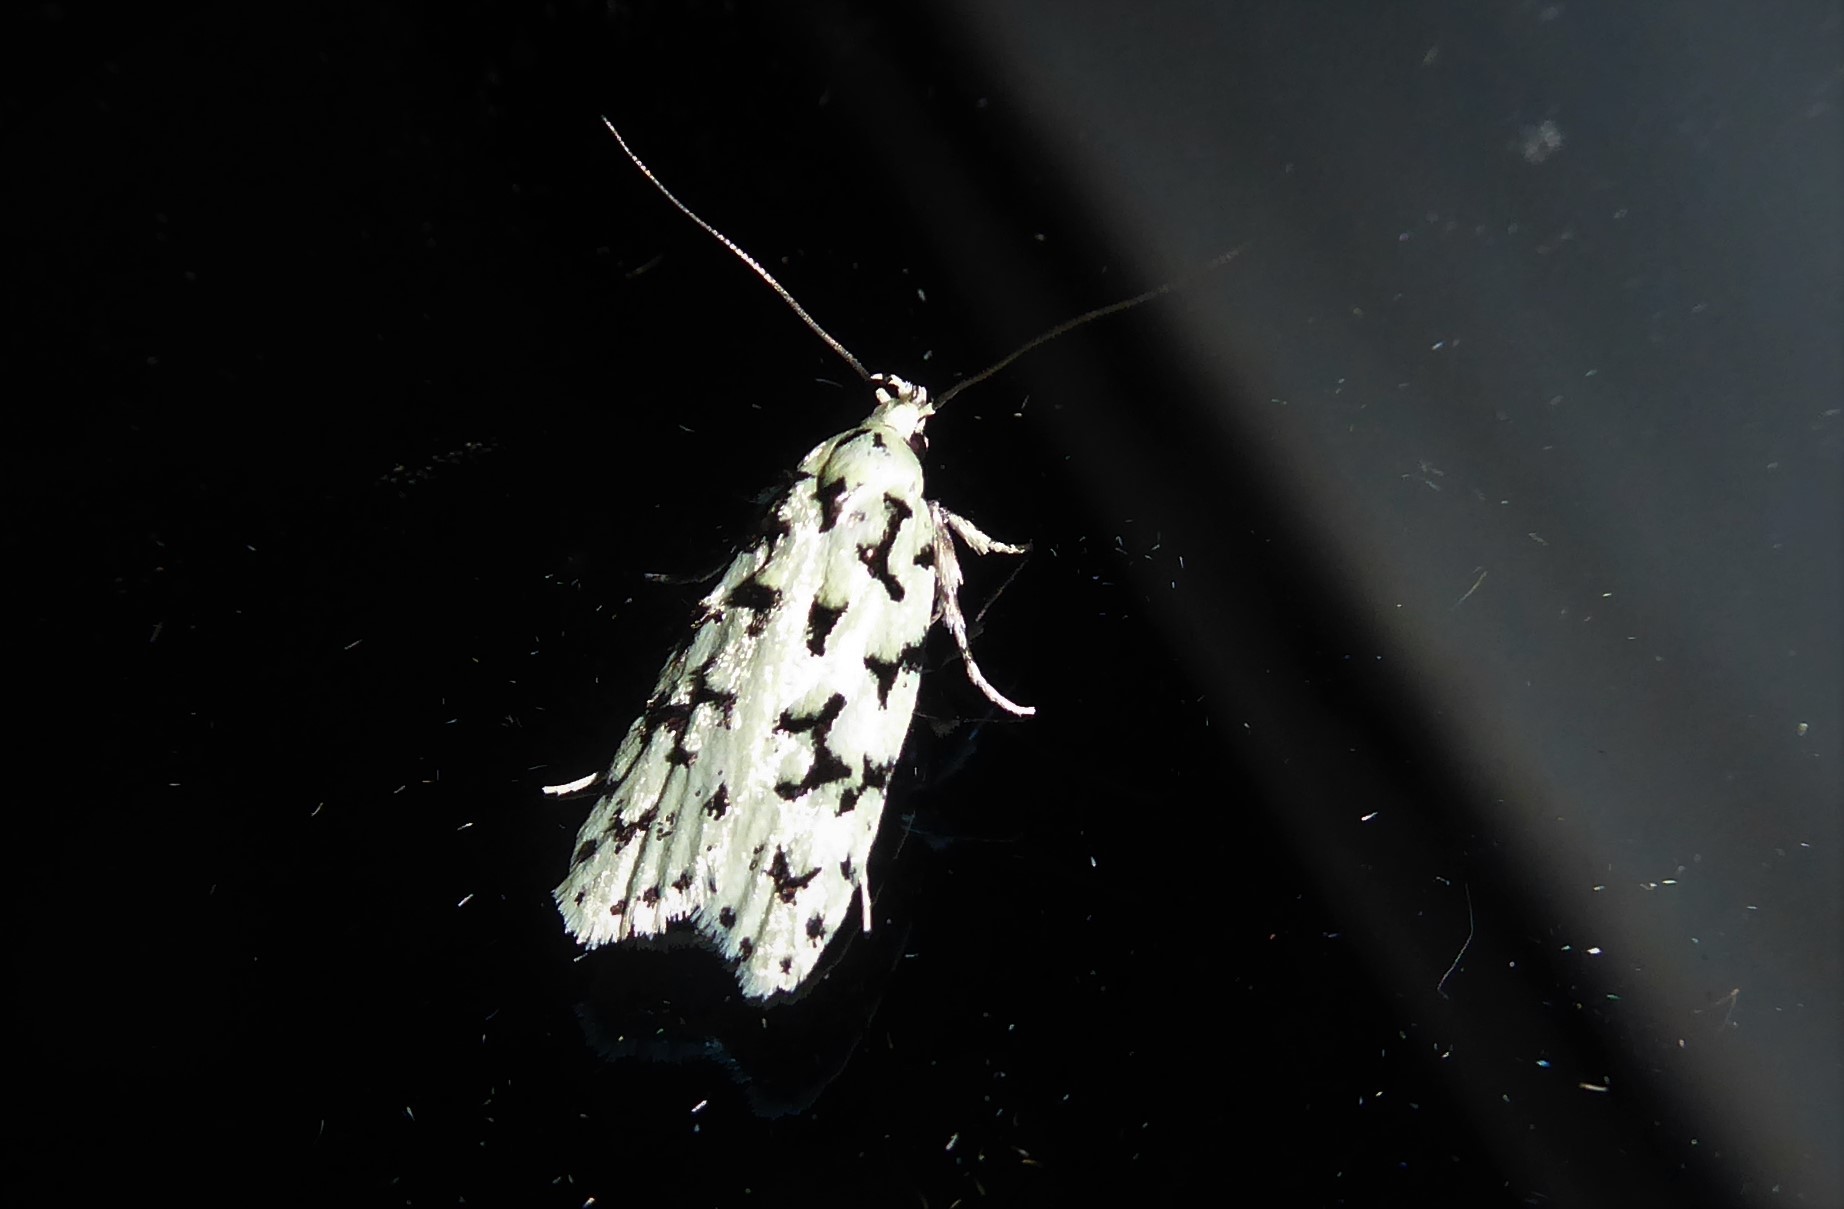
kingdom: Animalia
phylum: Arthropoda
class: Insecta
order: Lepidoptera
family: Oecophoridae
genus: Izatha
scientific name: Izatha huttoni
